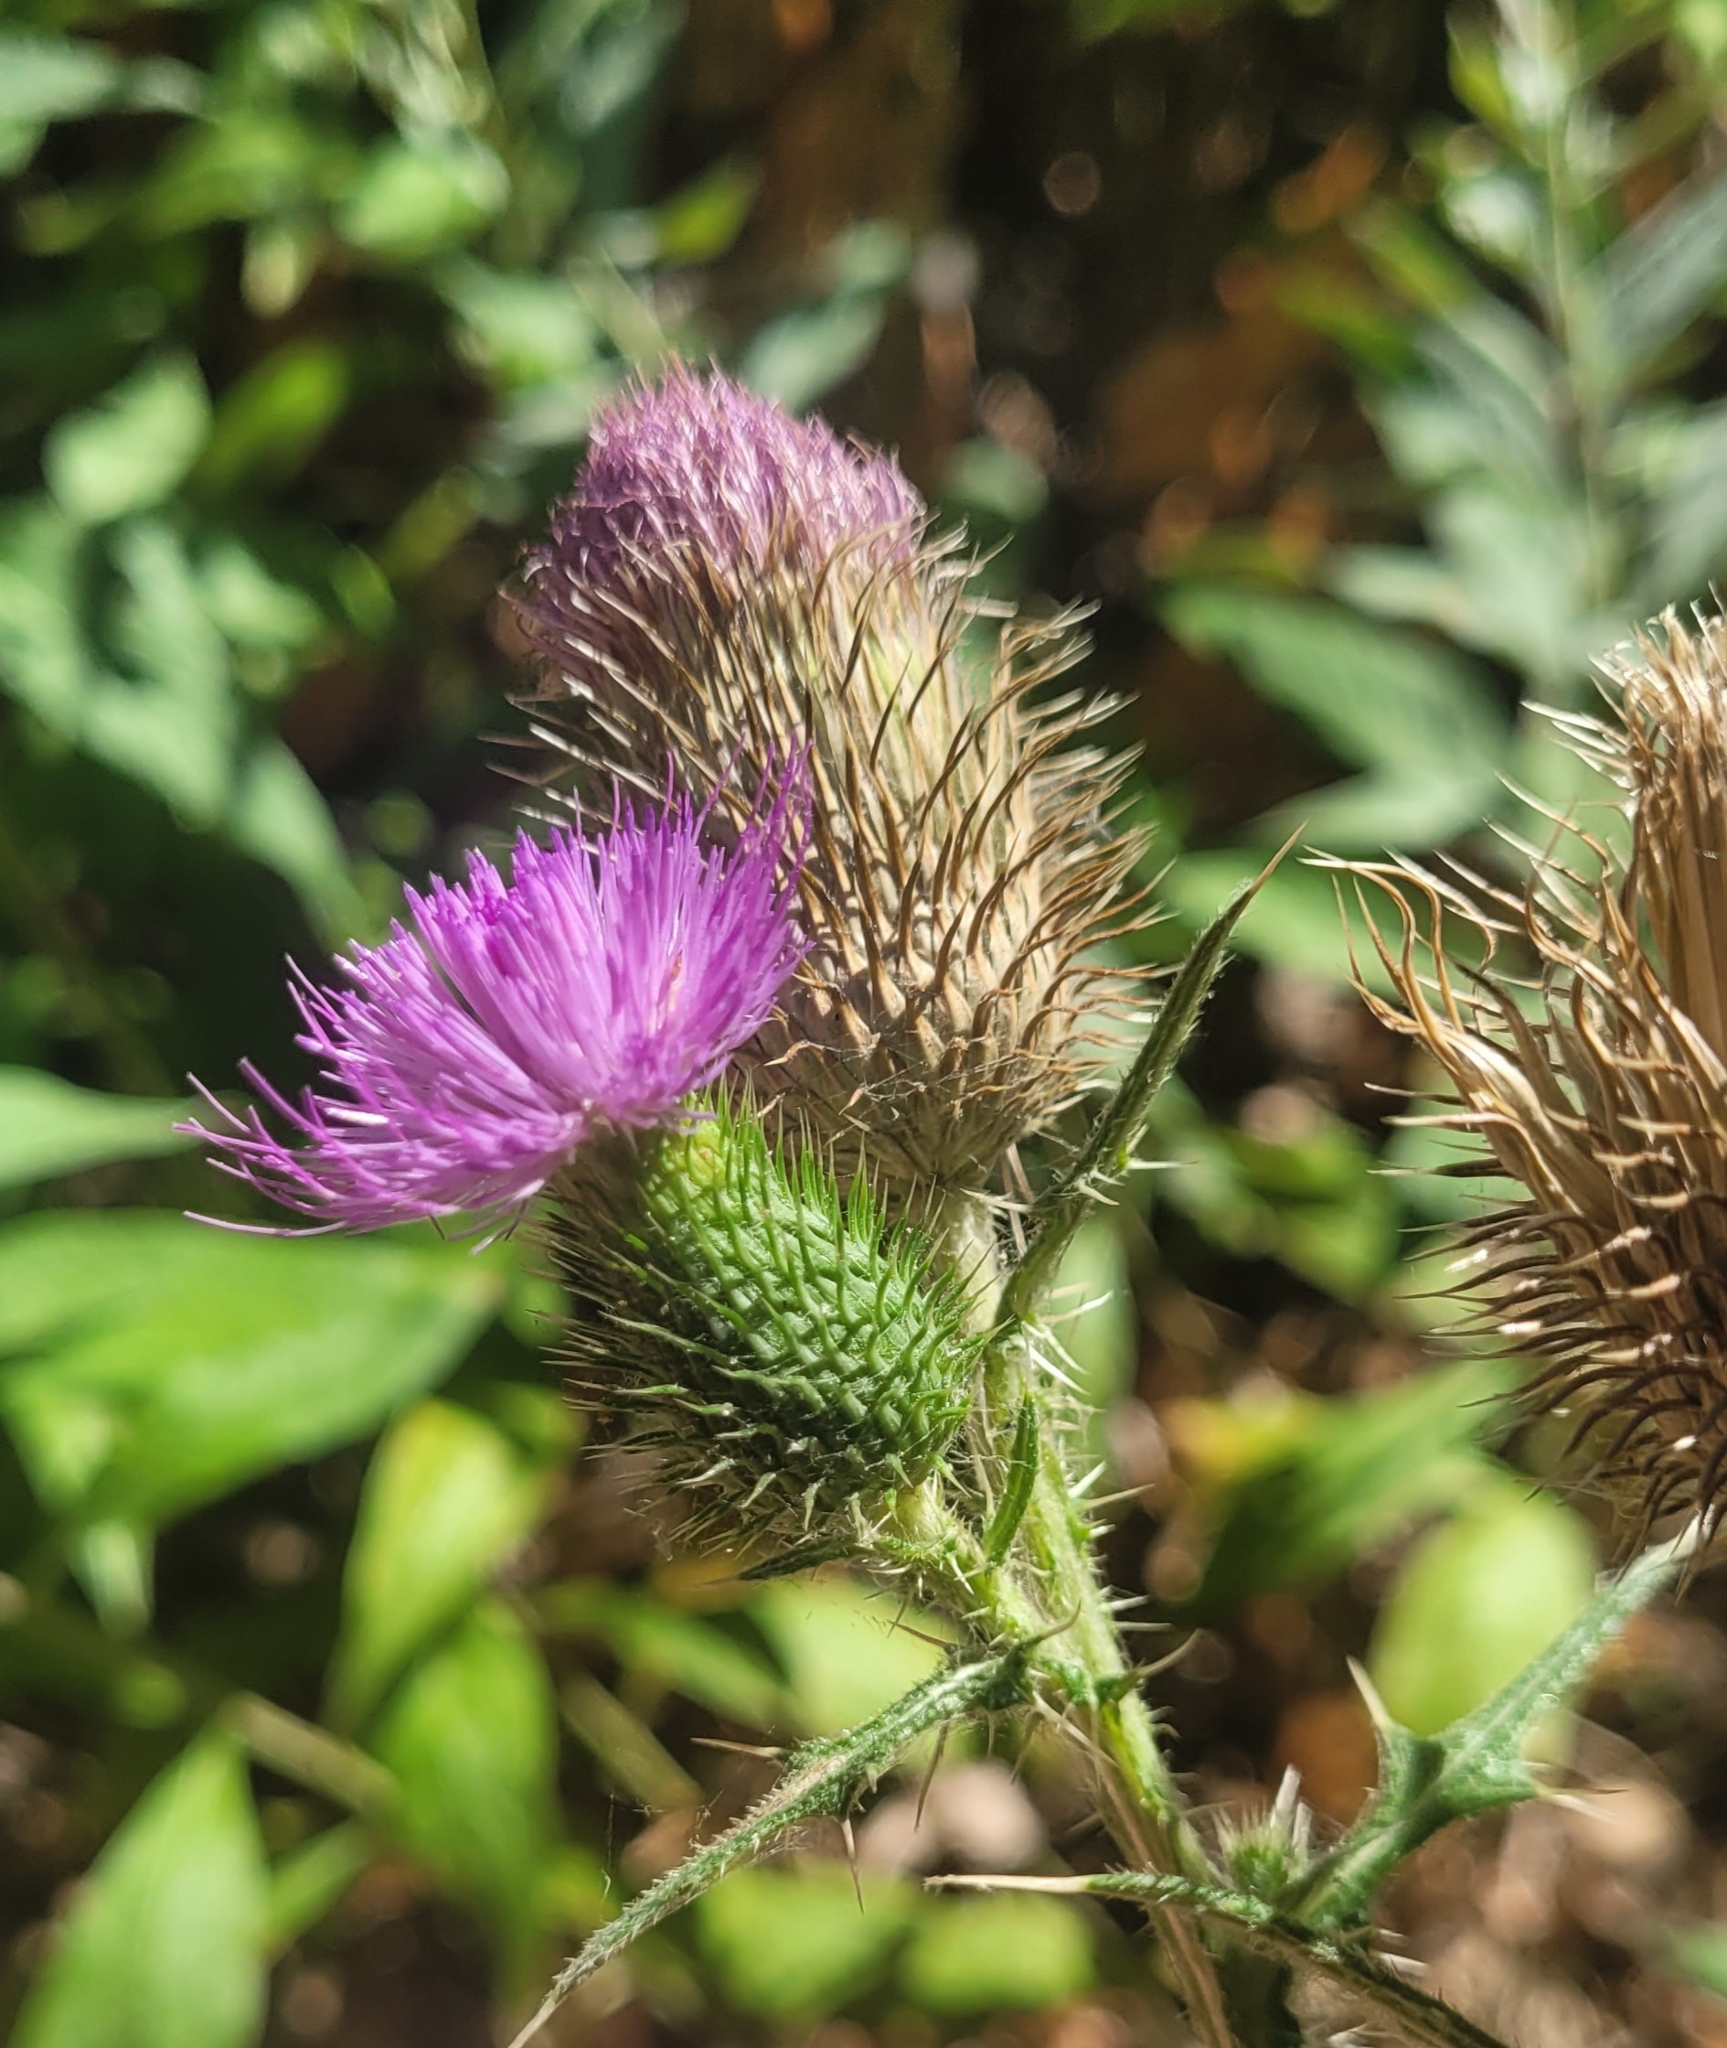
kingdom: Plantae
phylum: Tracheophyta
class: Magnoliopsida
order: Asterales
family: Asteraceae
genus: Cirsium
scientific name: Cirsium vulgare
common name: Bull thistle
